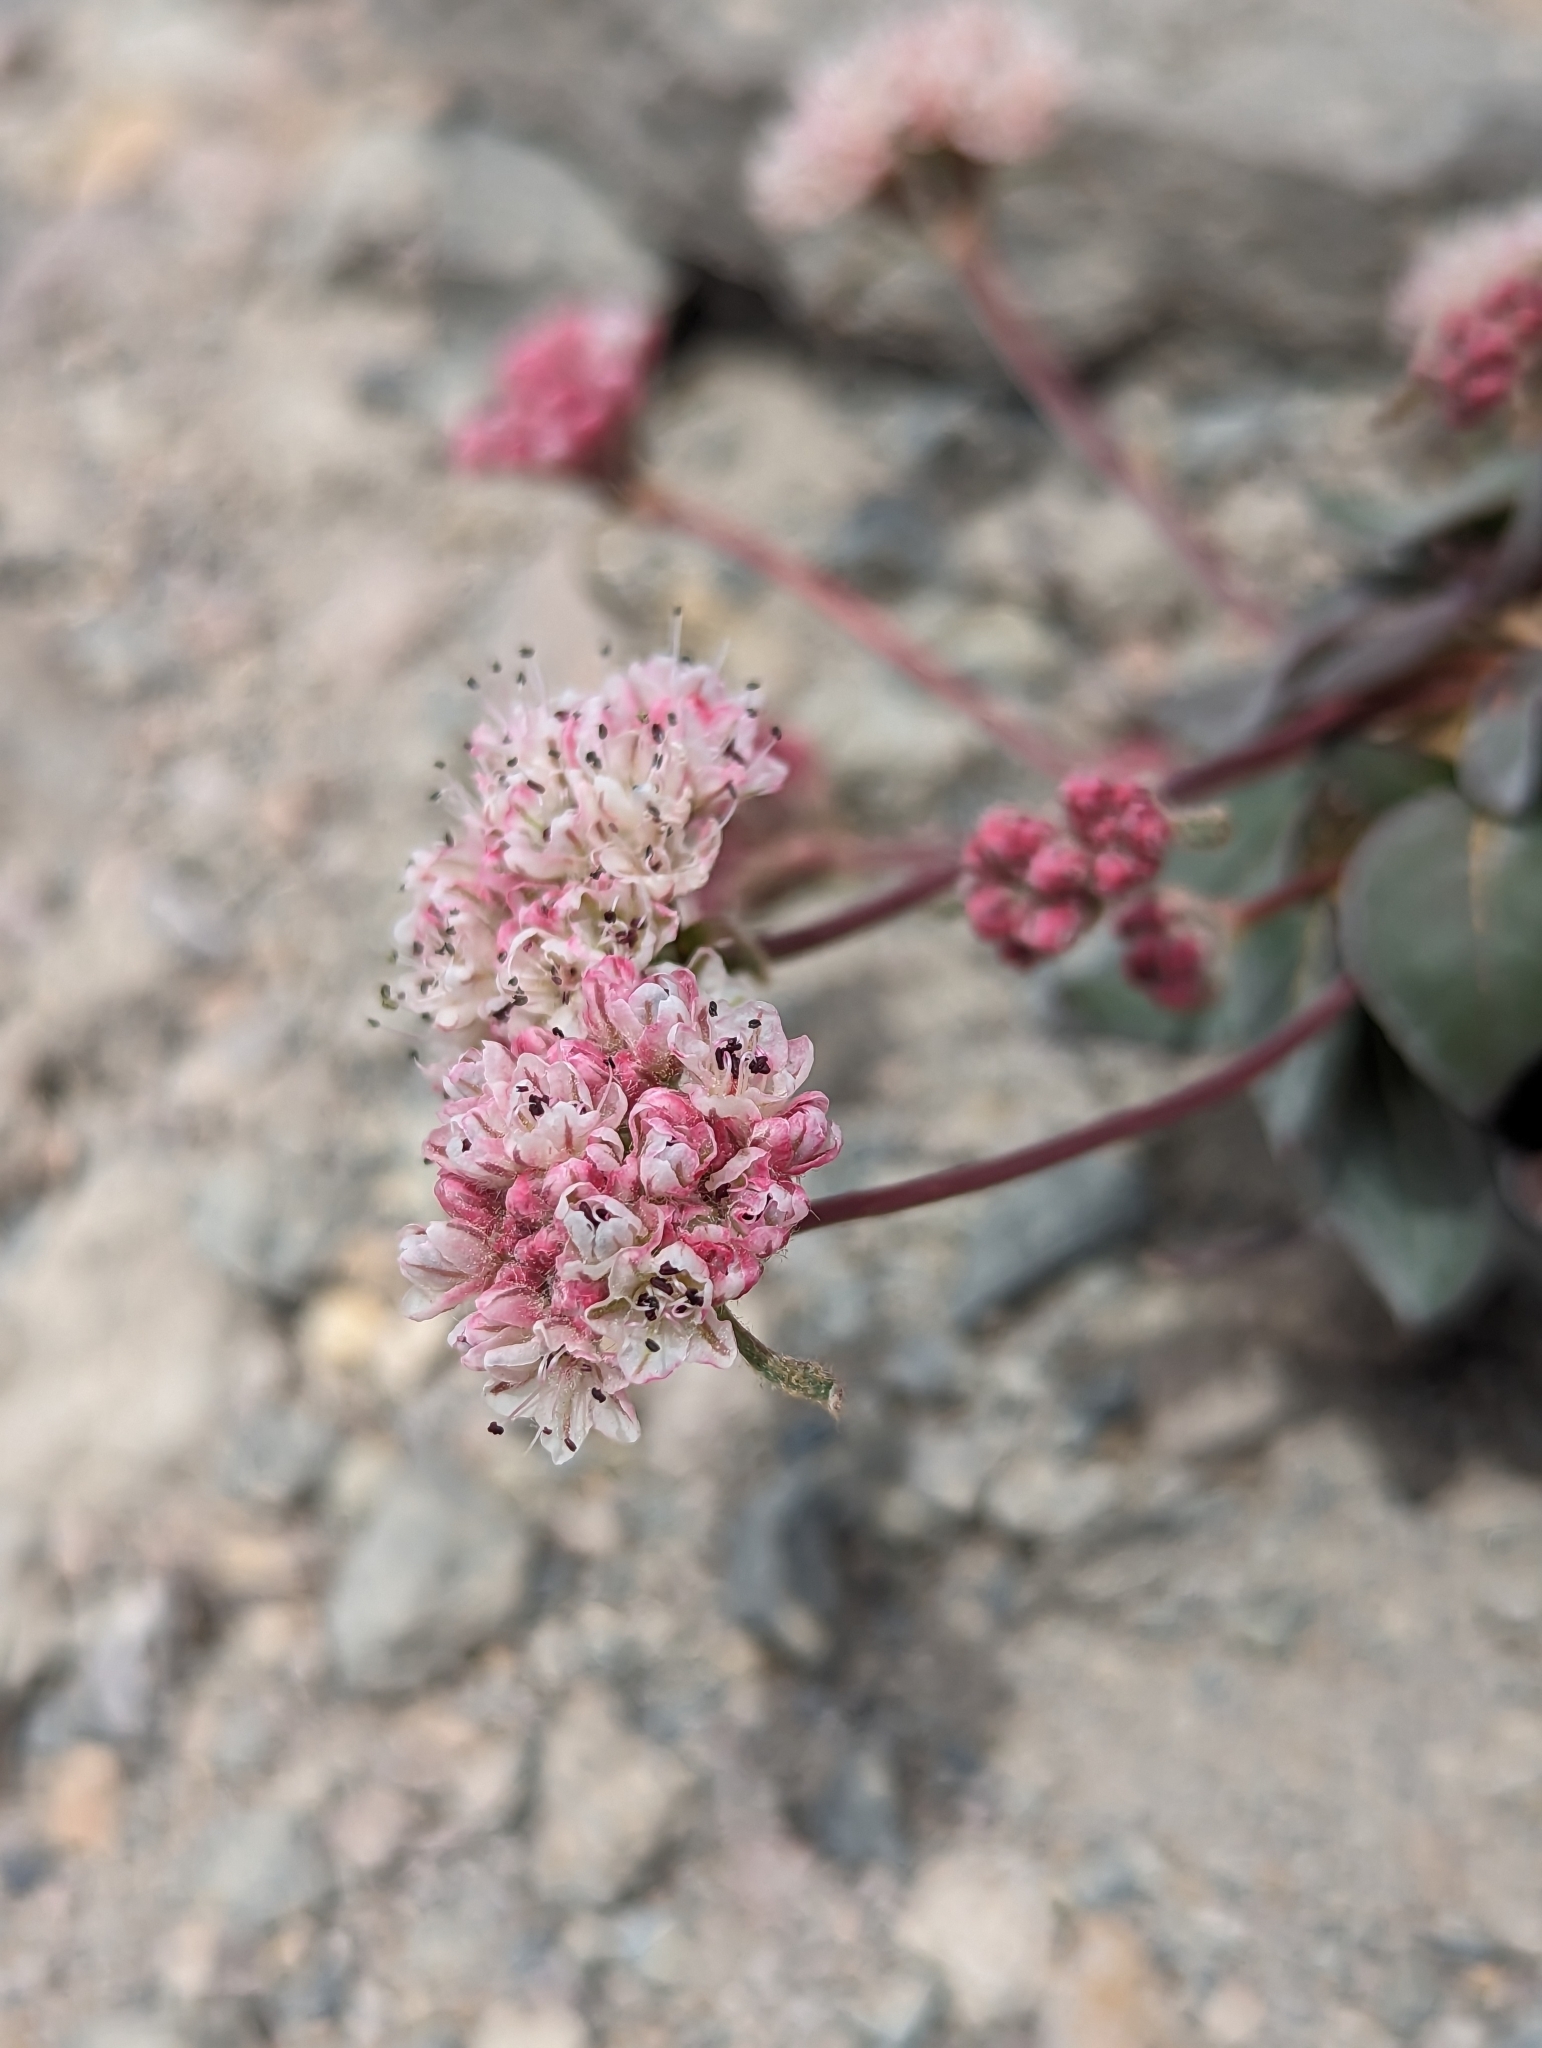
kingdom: Plantae
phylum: Tracheophyta
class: Magnoliopsida
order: Caryophyllales
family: Polygonaceae
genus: Eriogonum
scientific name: Eriogonum pyrolifolium
